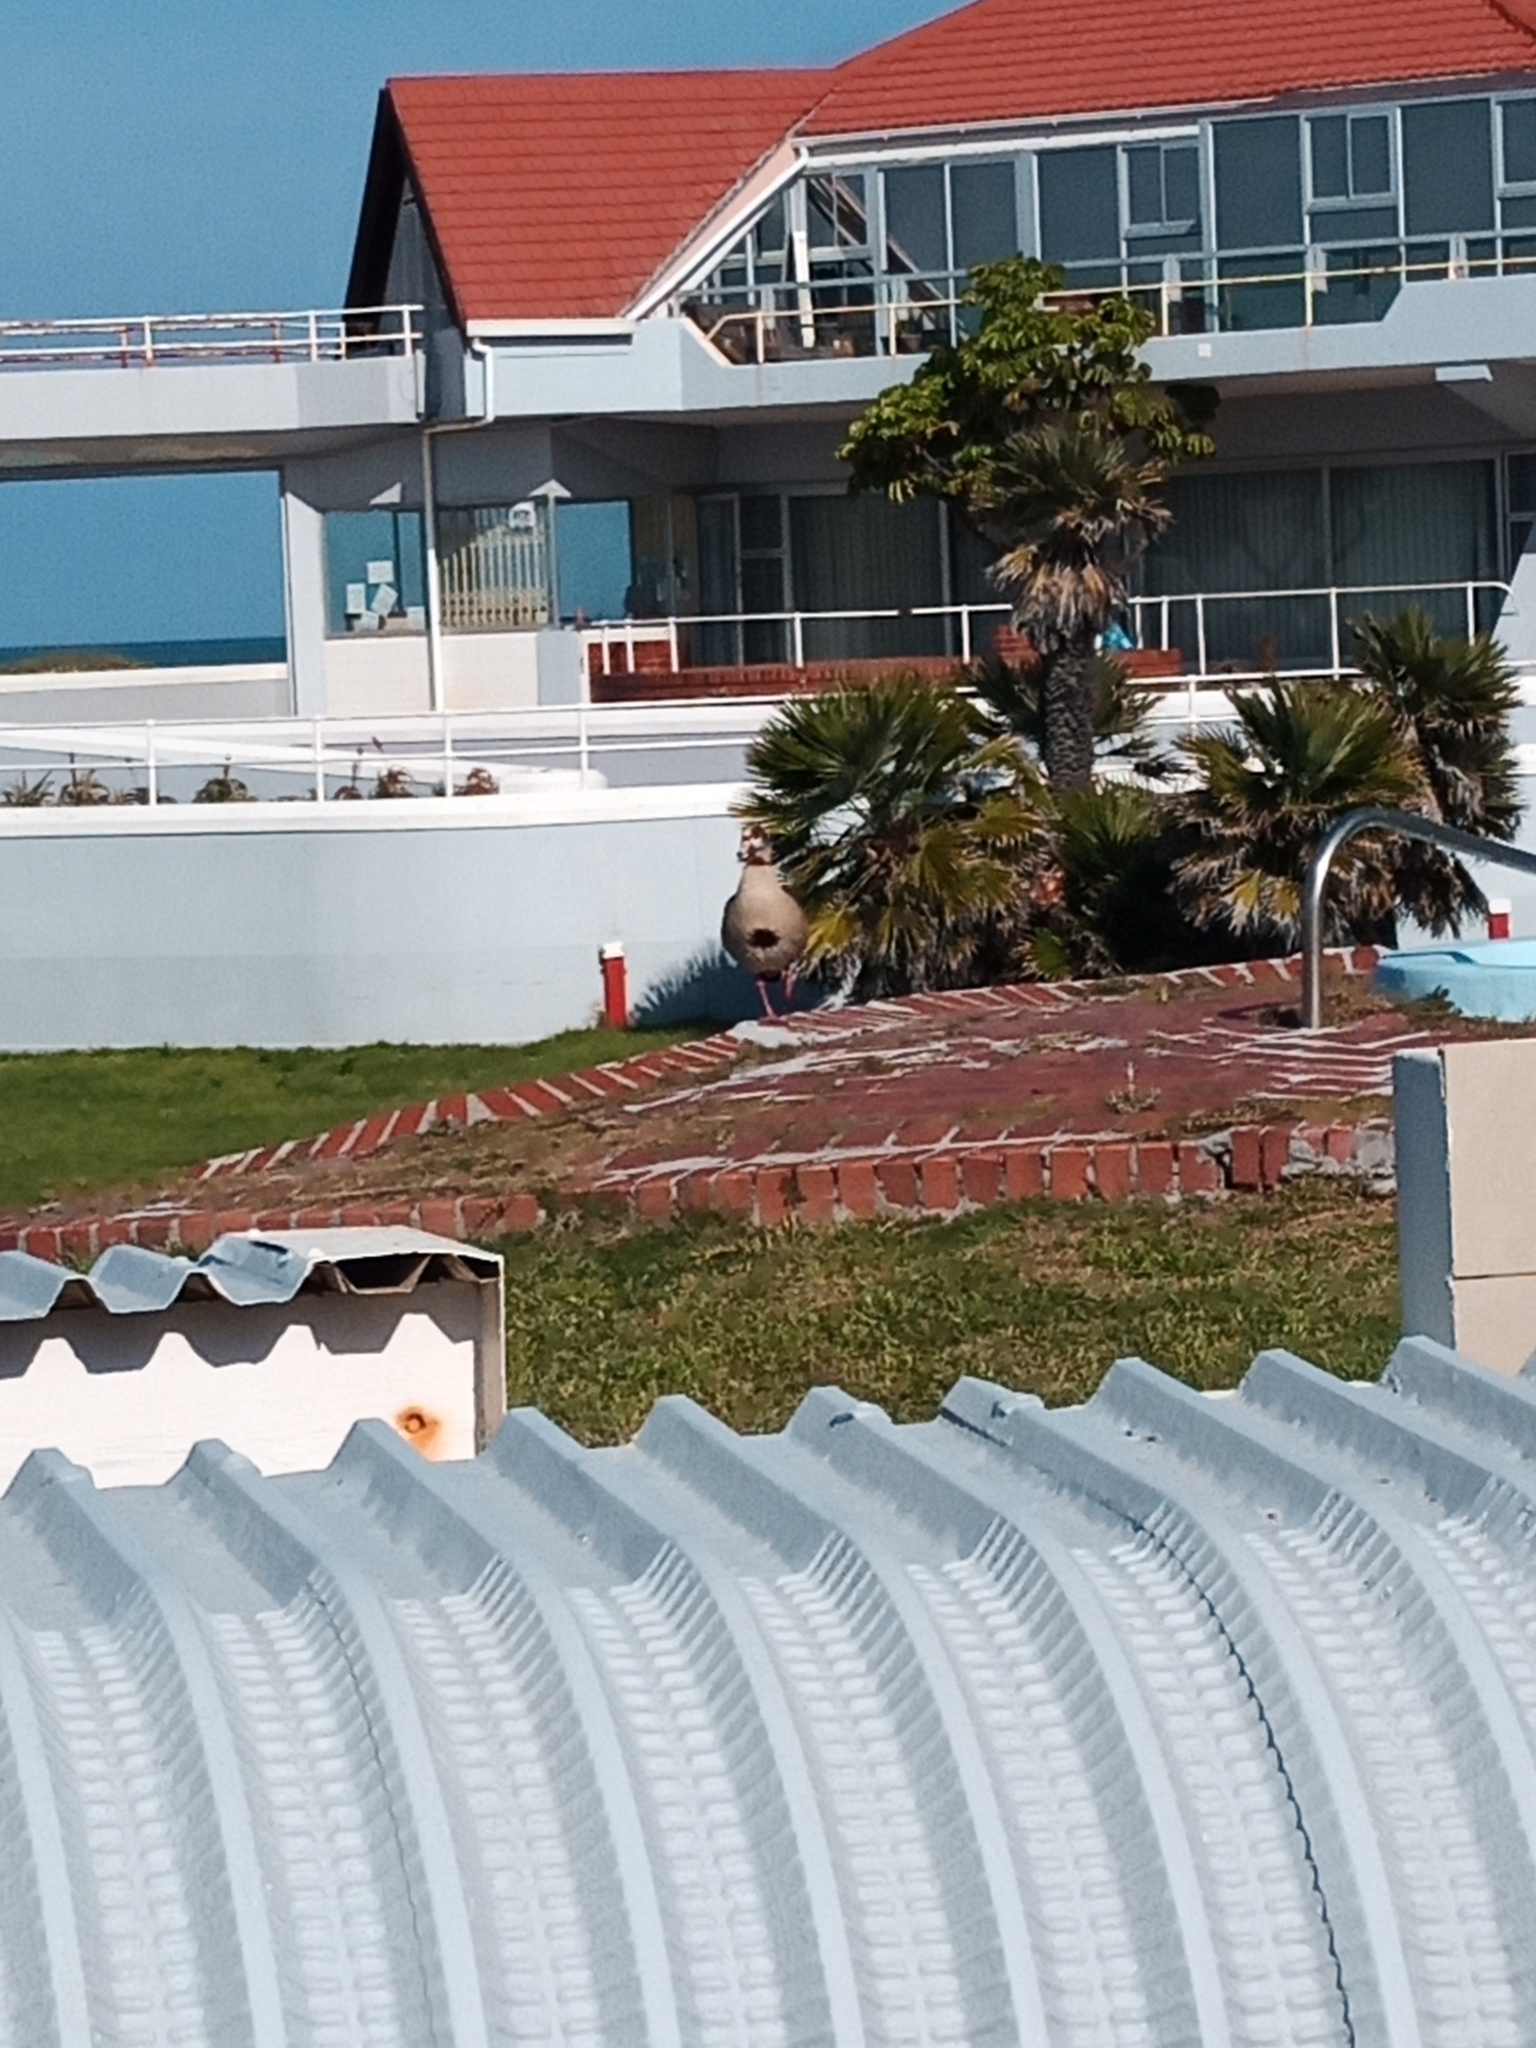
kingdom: Animalia
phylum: Chordata
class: Aves
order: Anseriformes
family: Anatidae
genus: Alopochen
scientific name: Alopochen aegyptiaca
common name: Egyptian goose
